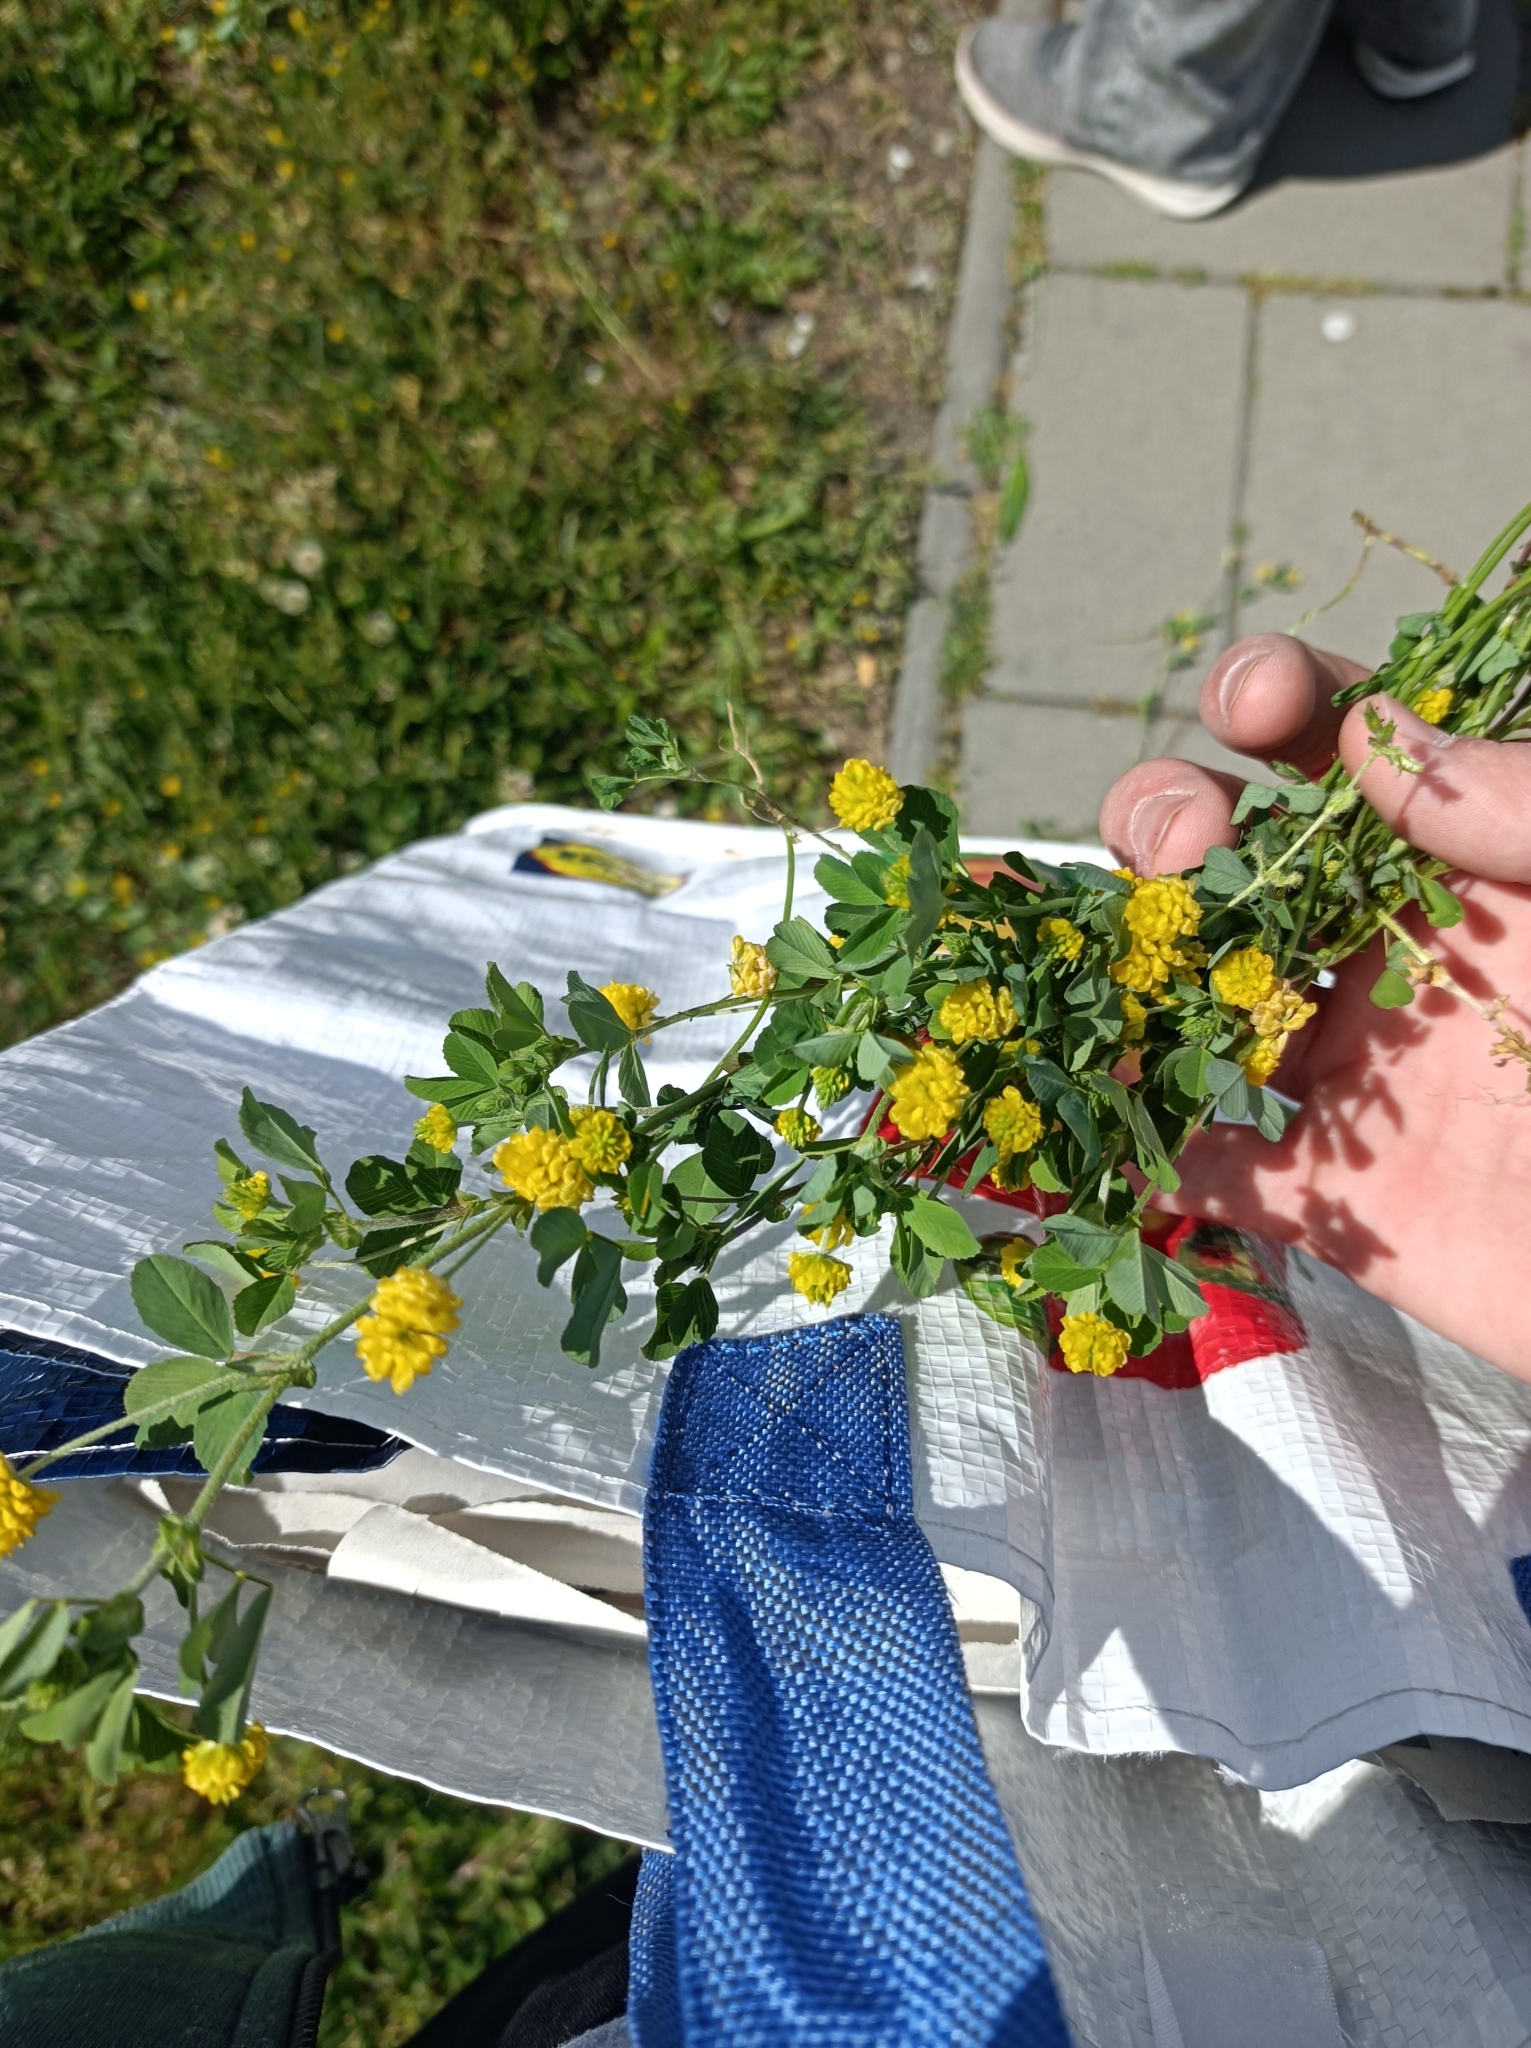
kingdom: Plantae
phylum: Tracheophyta
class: Magnoliopsida
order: Fabales
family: Fabaceae
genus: Trifolium
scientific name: Trifolium campestre
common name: Field clover
